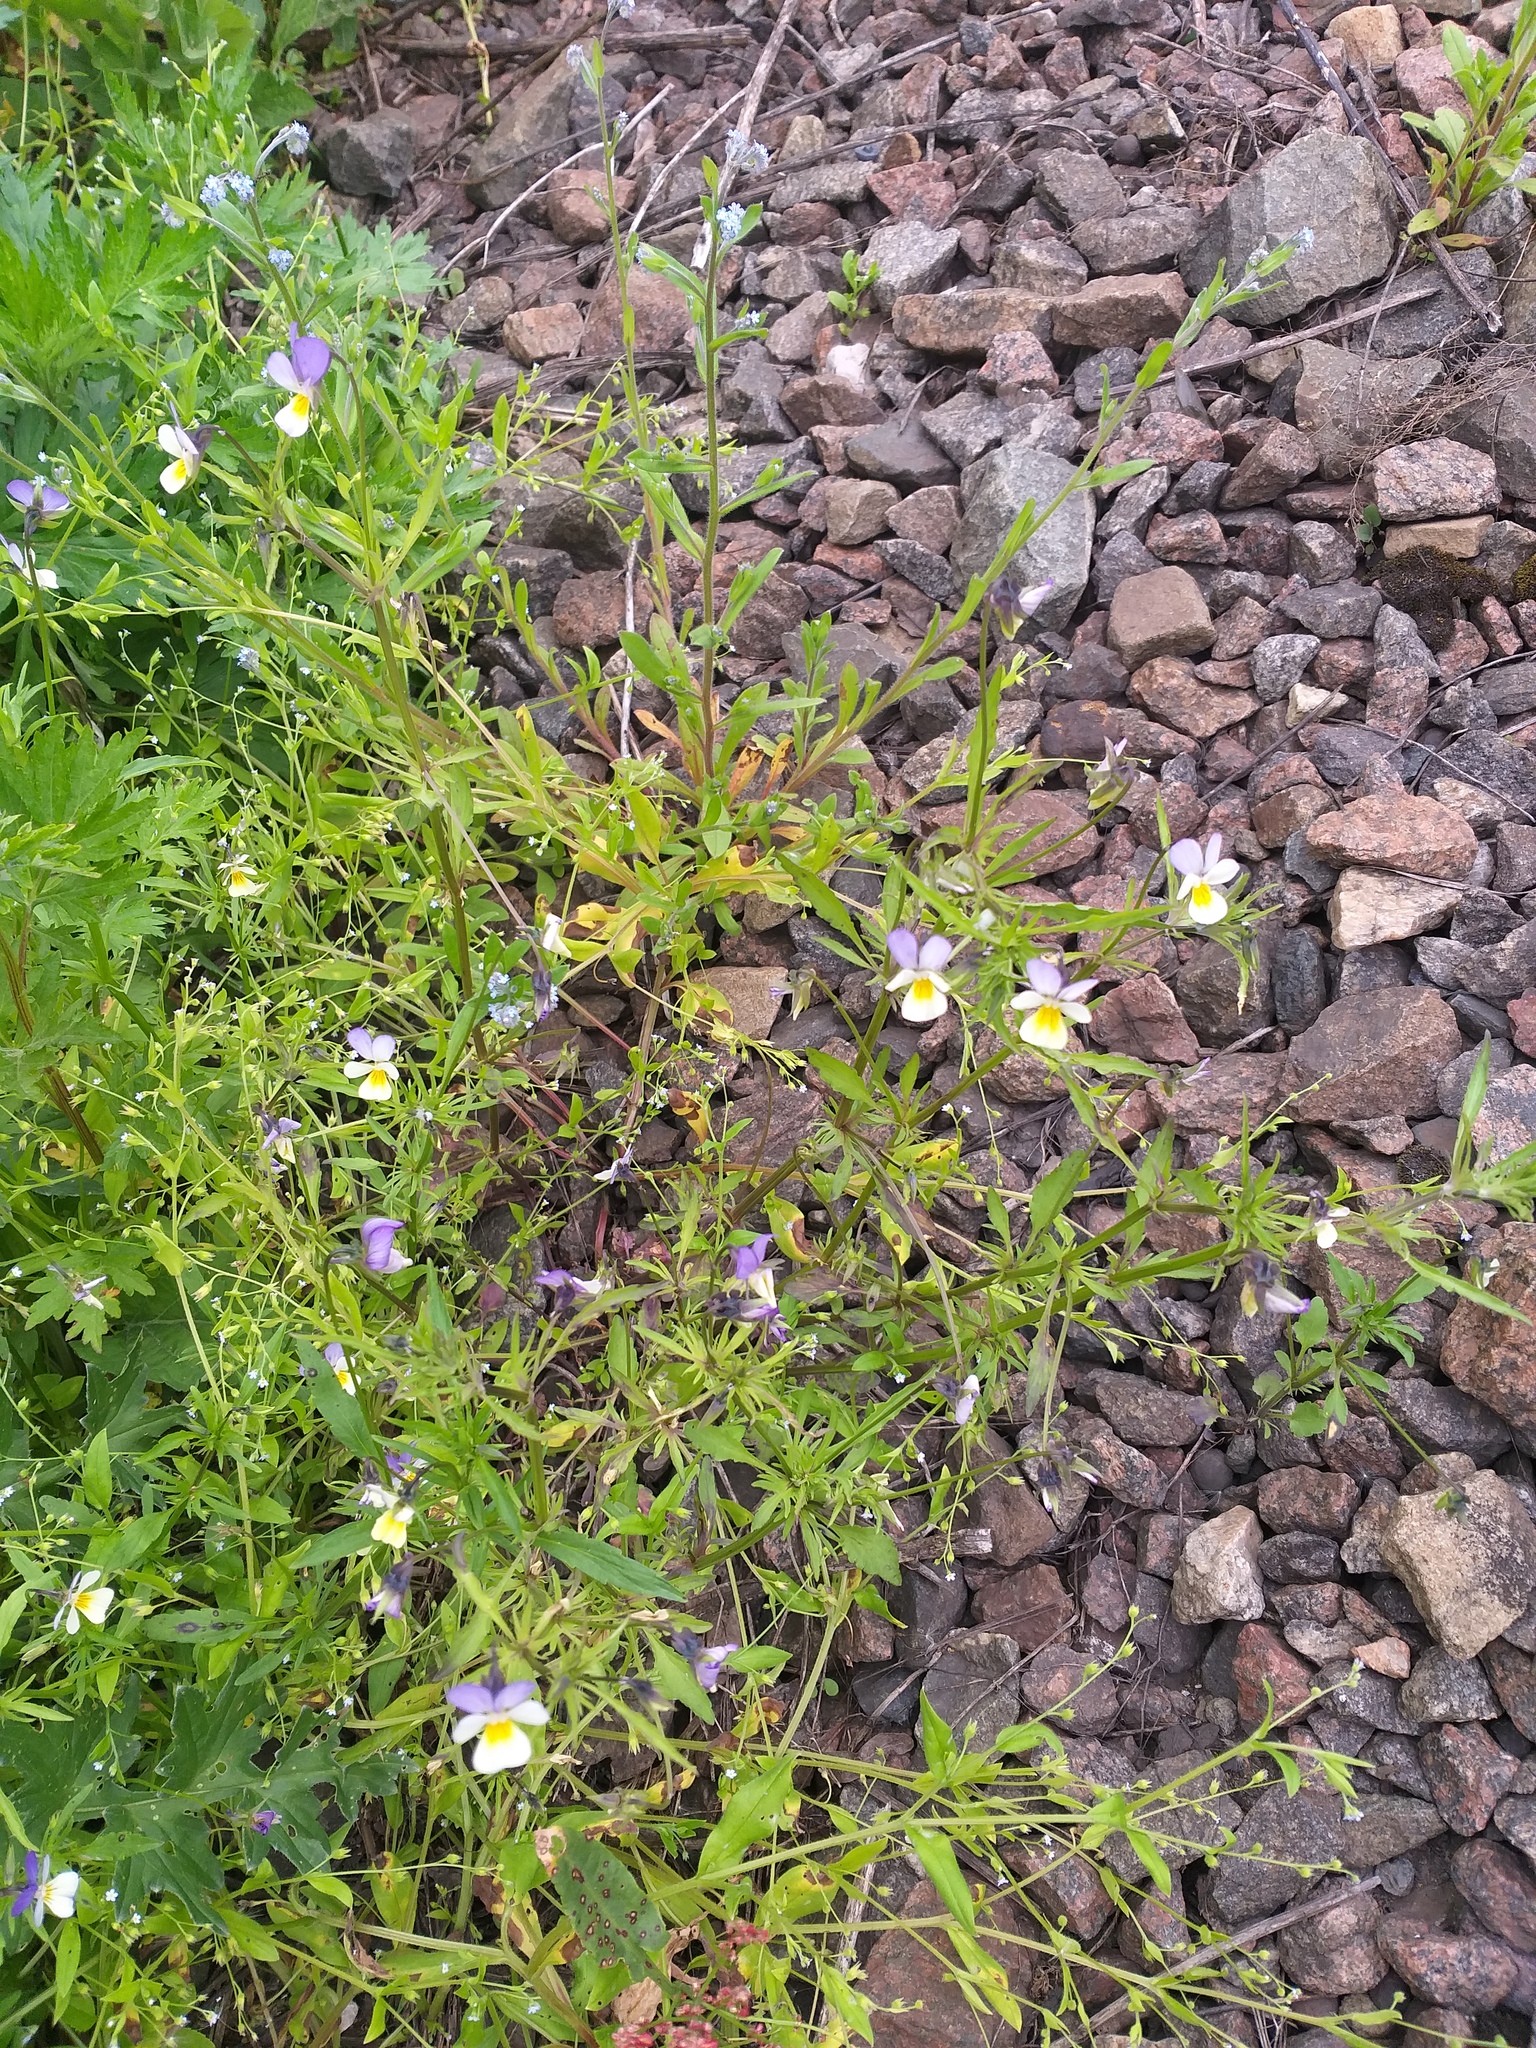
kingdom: Plantae
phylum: Tracheophyta
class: Magnoliopsida
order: Malpighiales
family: Violaceae
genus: Viola
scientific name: Viola contempta
